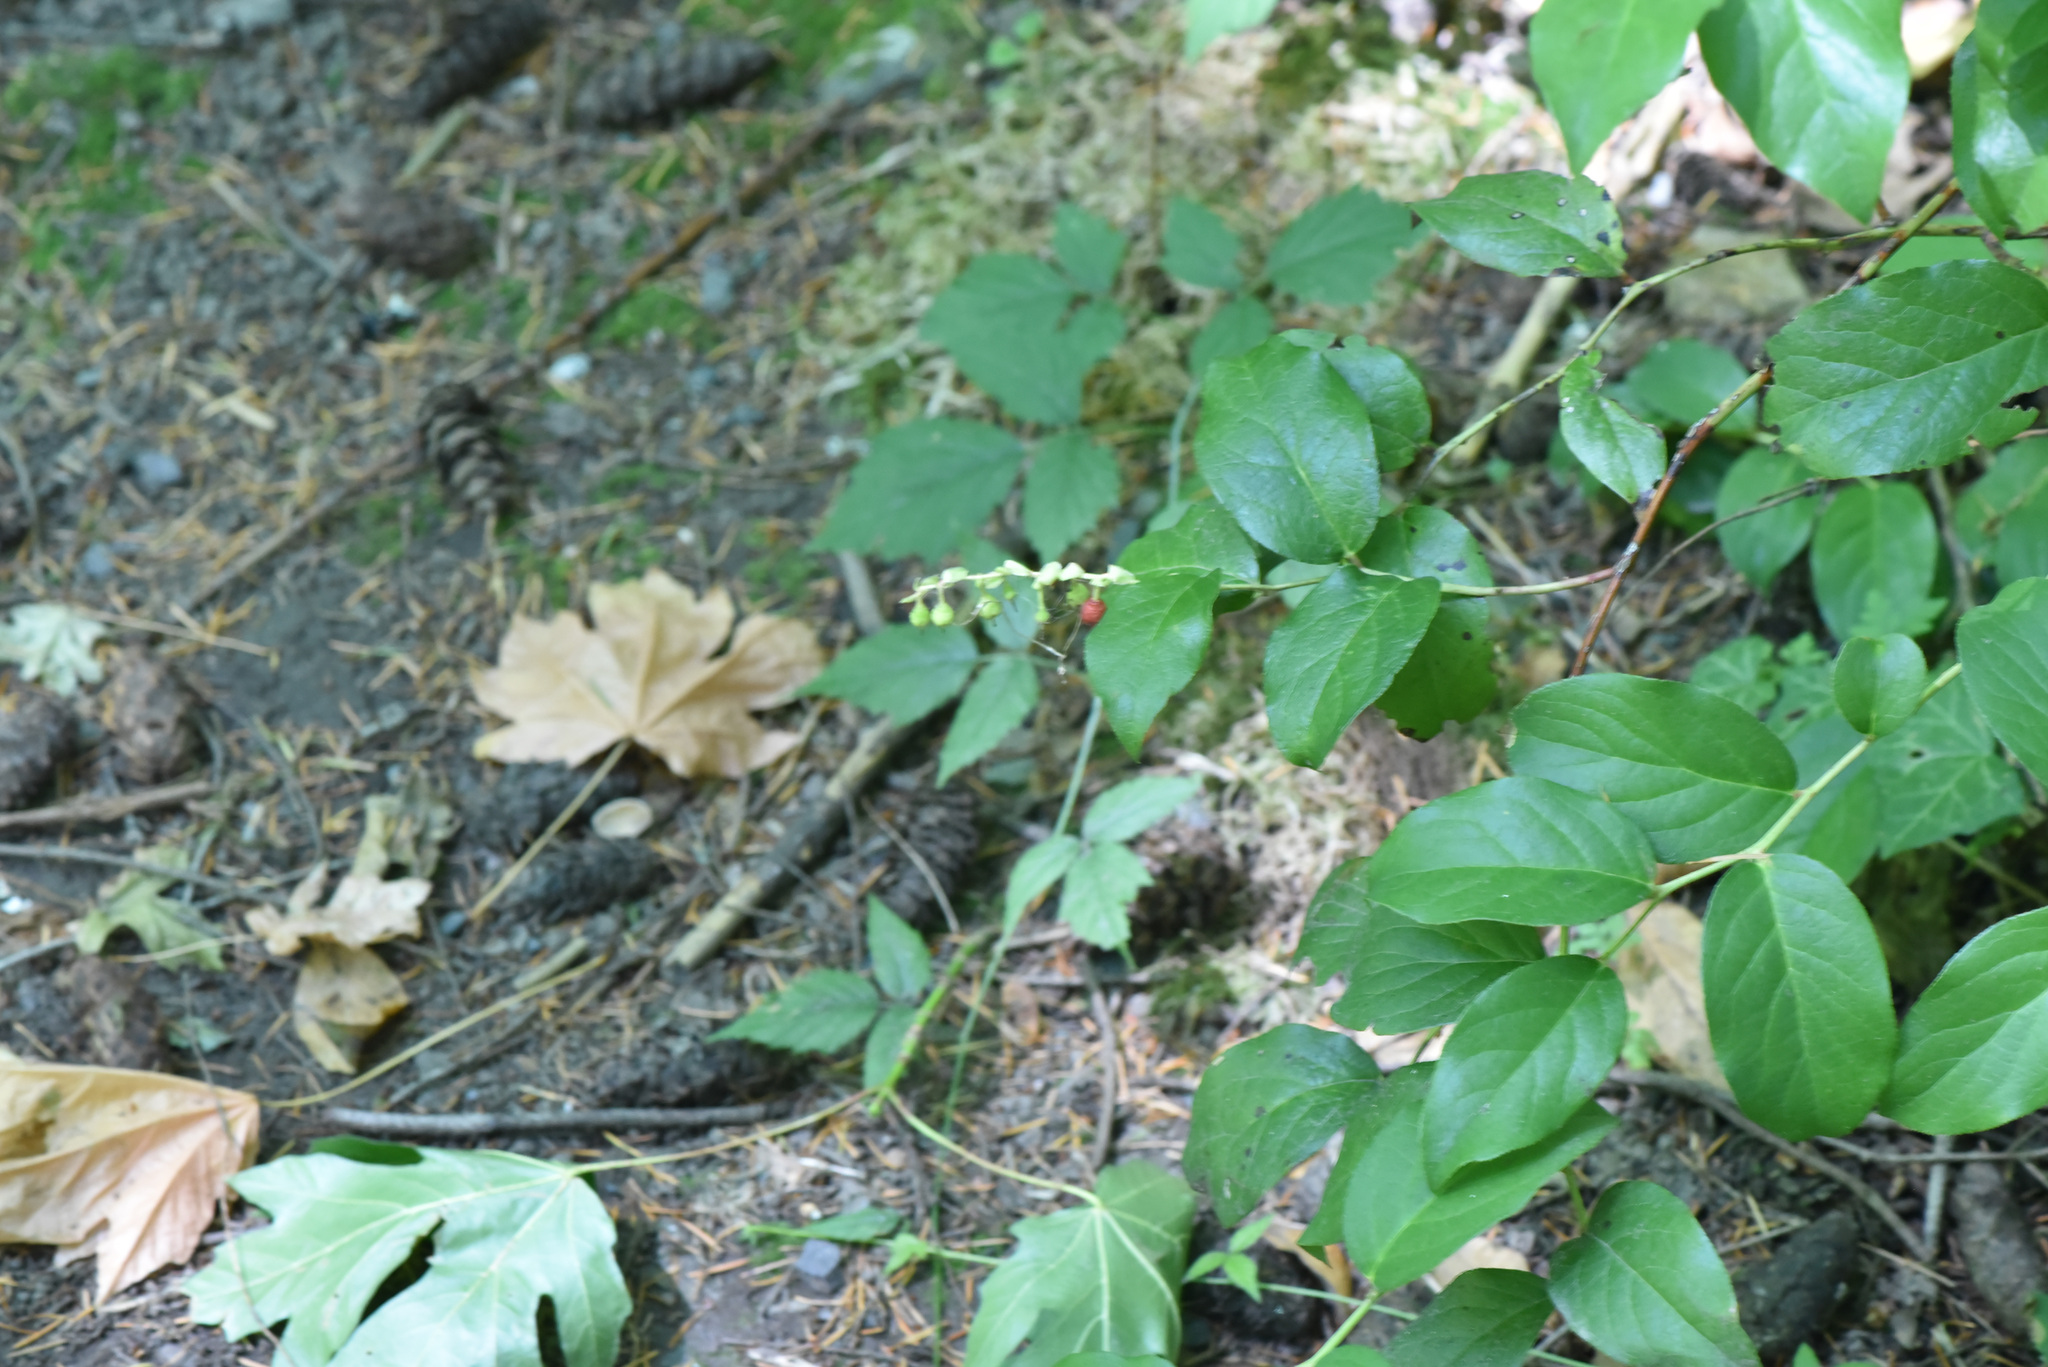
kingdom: Plantae
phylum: Tracheophyta
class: Magnoliopsida
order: Ericales
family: Ericaceae
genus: Gaultheria
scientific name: Gaultheria shallon
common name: Shallon
